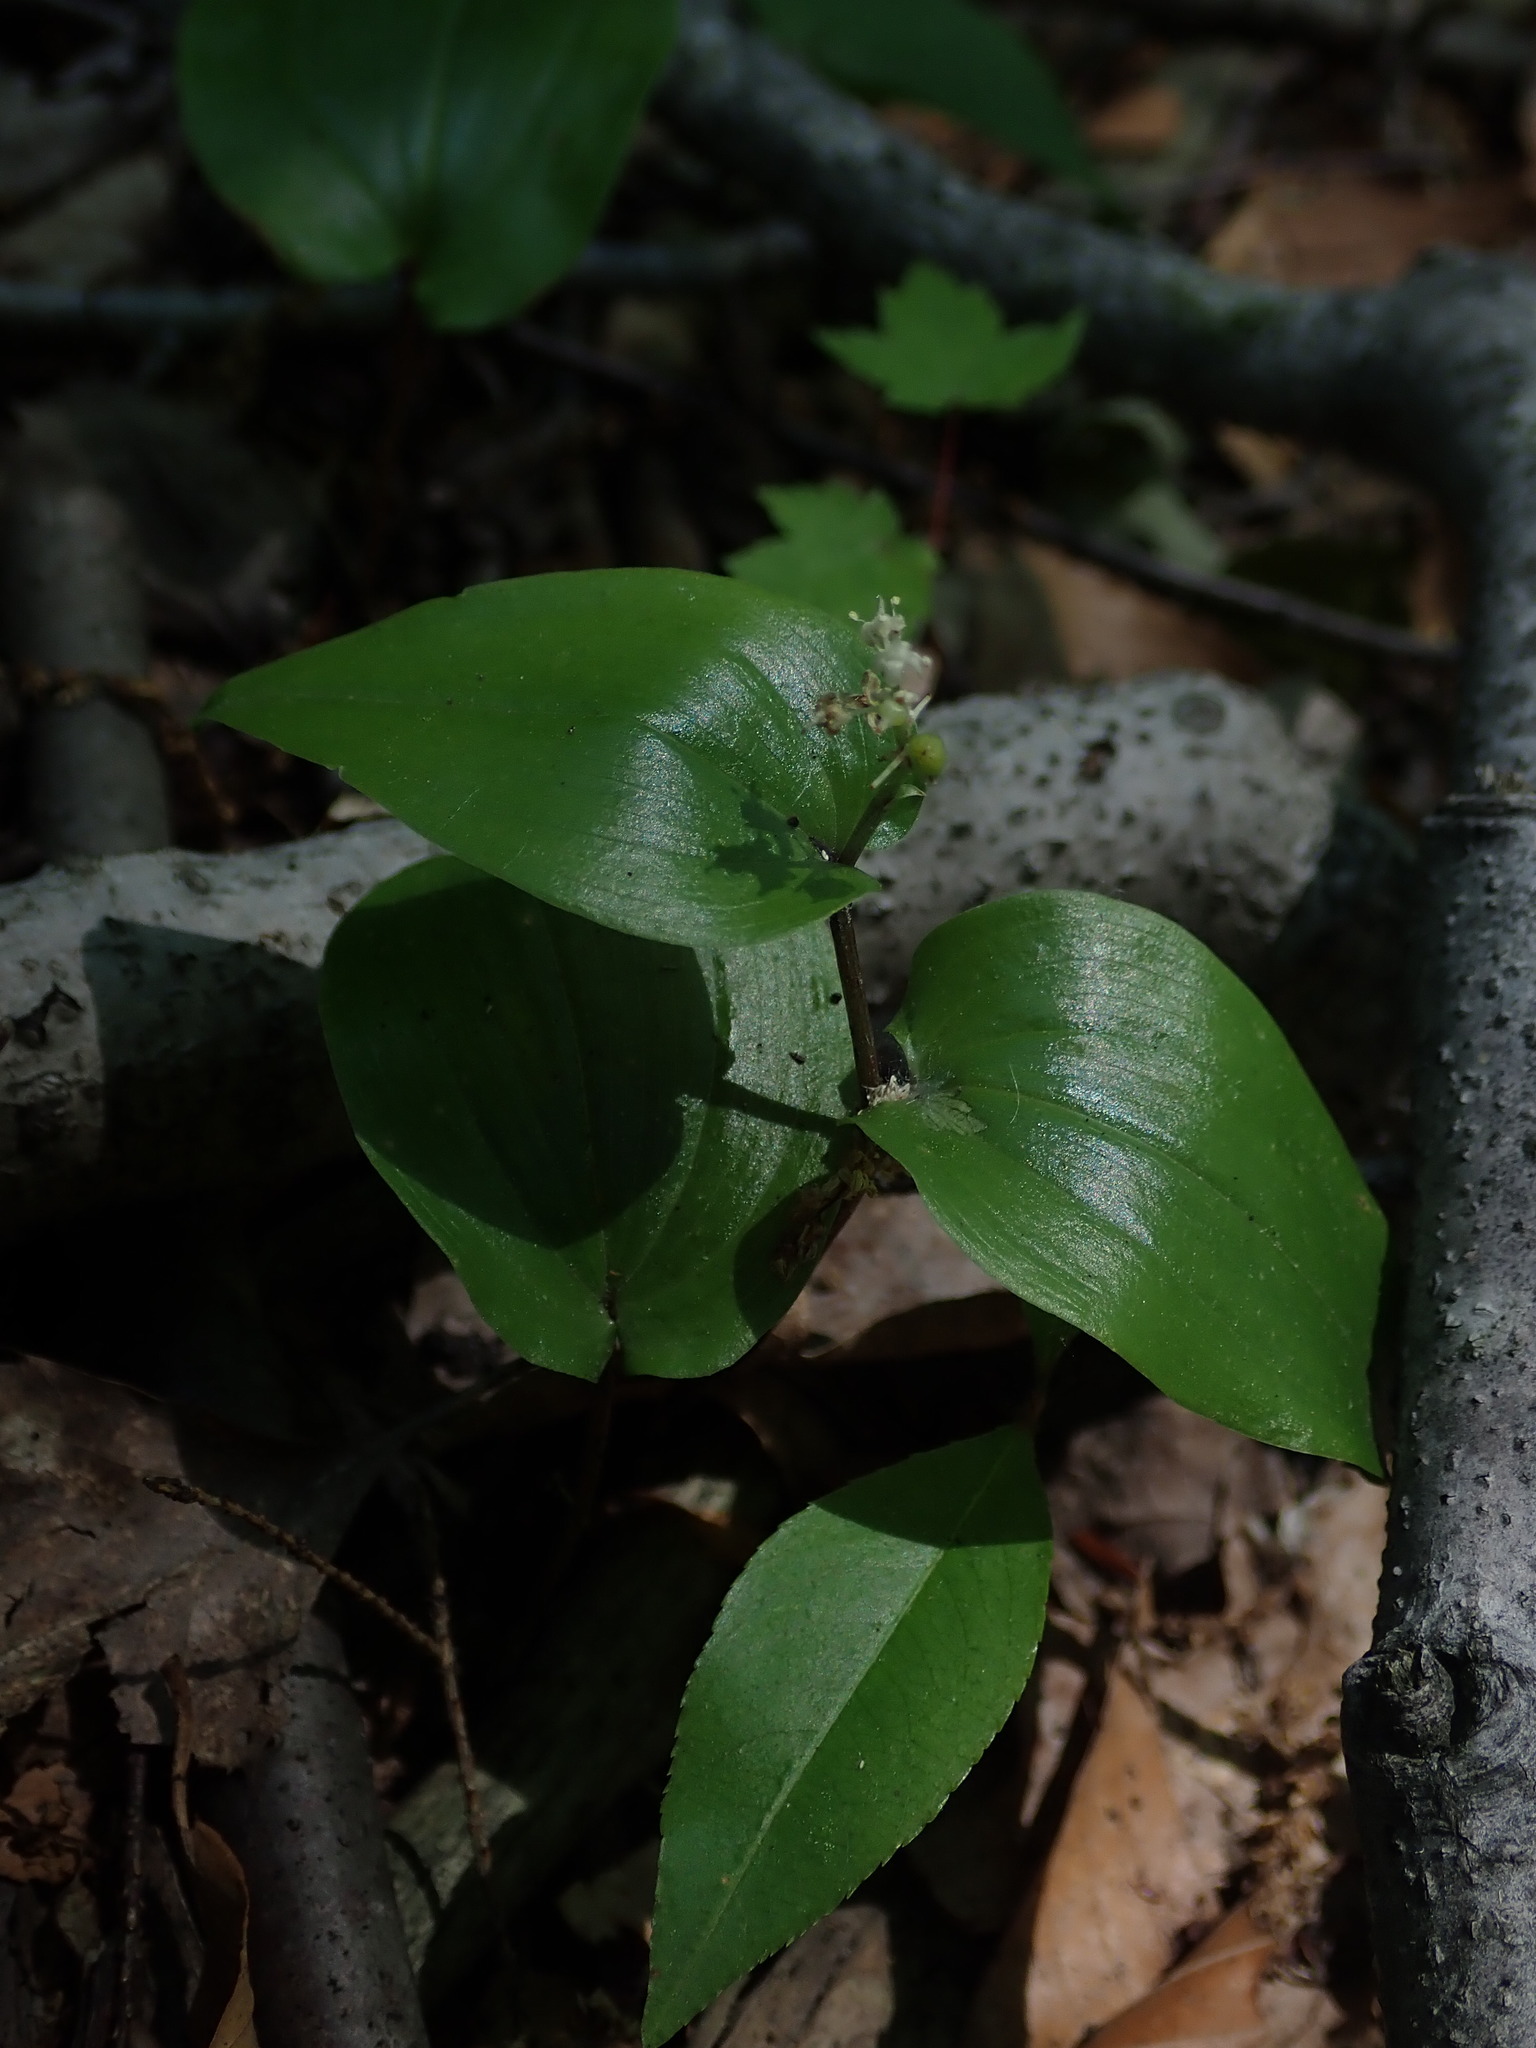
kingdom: Plantae
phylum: Tracheophyta
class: Liliopsida
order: Asparagales
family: Asparagaceae
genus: Maianthemum
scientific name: Maianthemum canadense
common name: False lily-of-the-valley
